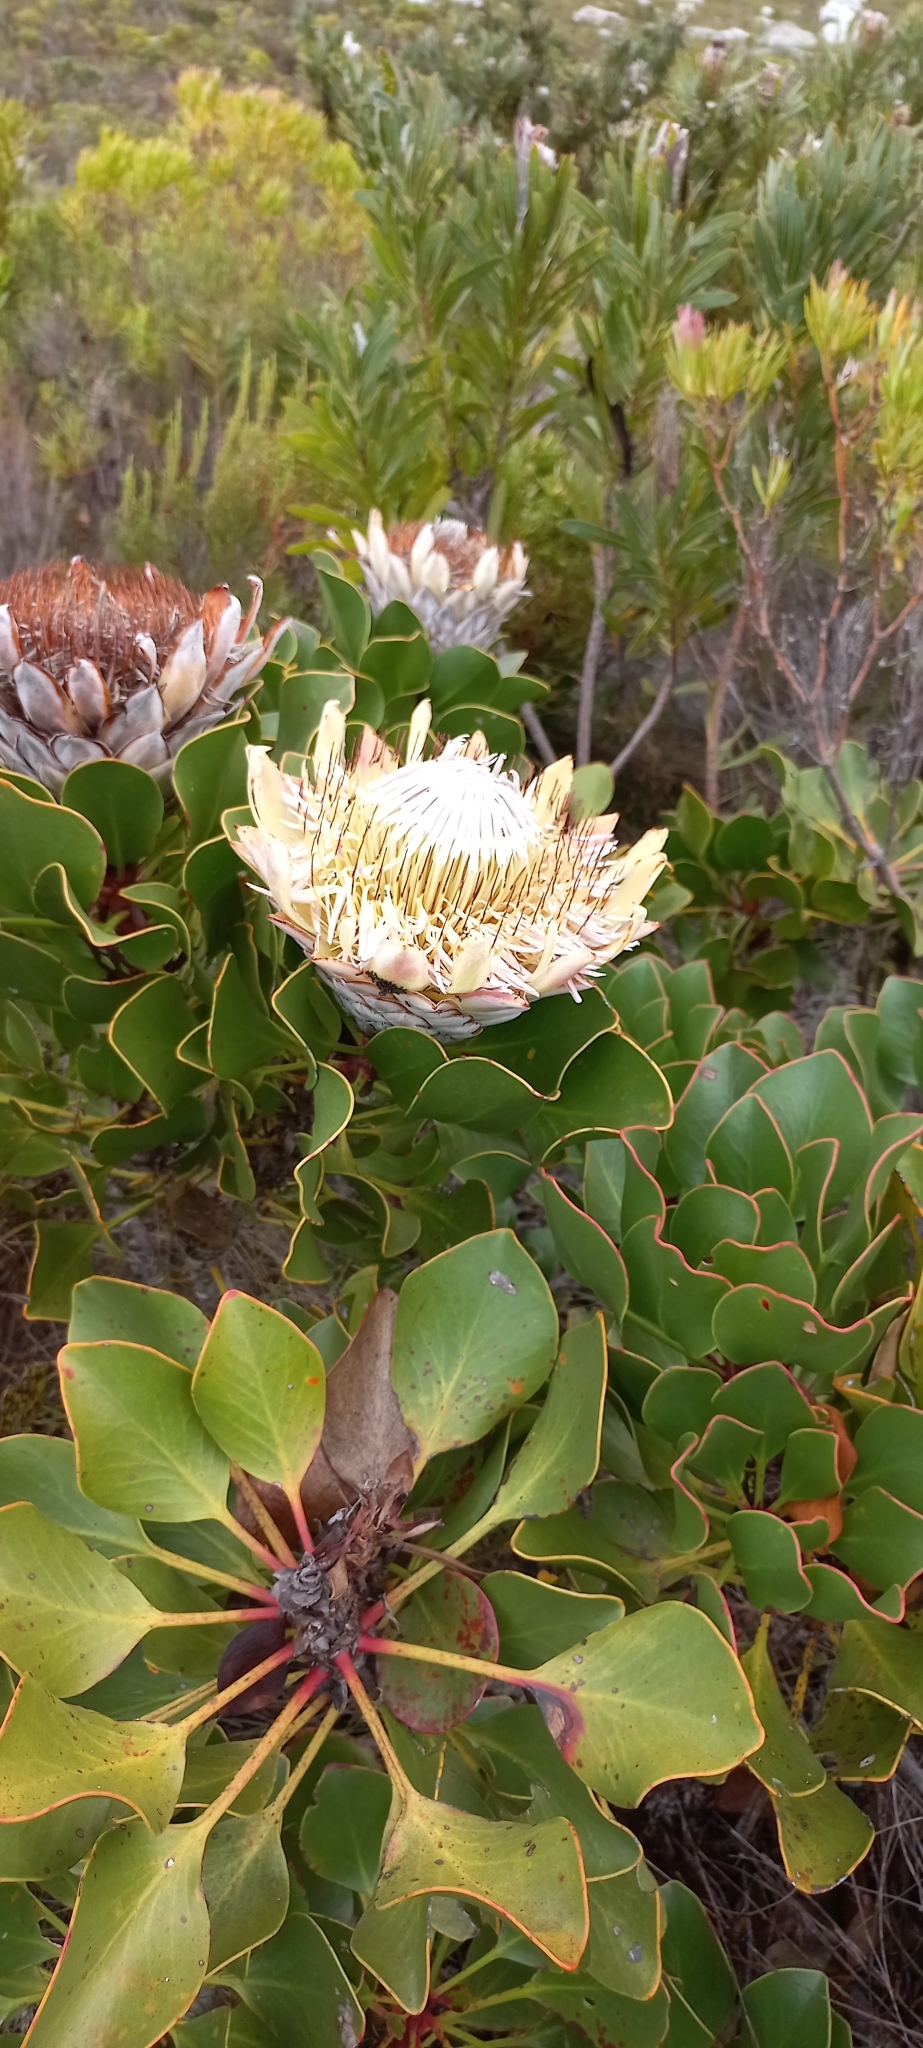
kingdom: Plantae
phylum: Tracheophyta
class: Magnoliopsida
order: Proteales
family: Proteaceae
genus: Protea
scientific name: Protea cynaroides
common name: King protea
